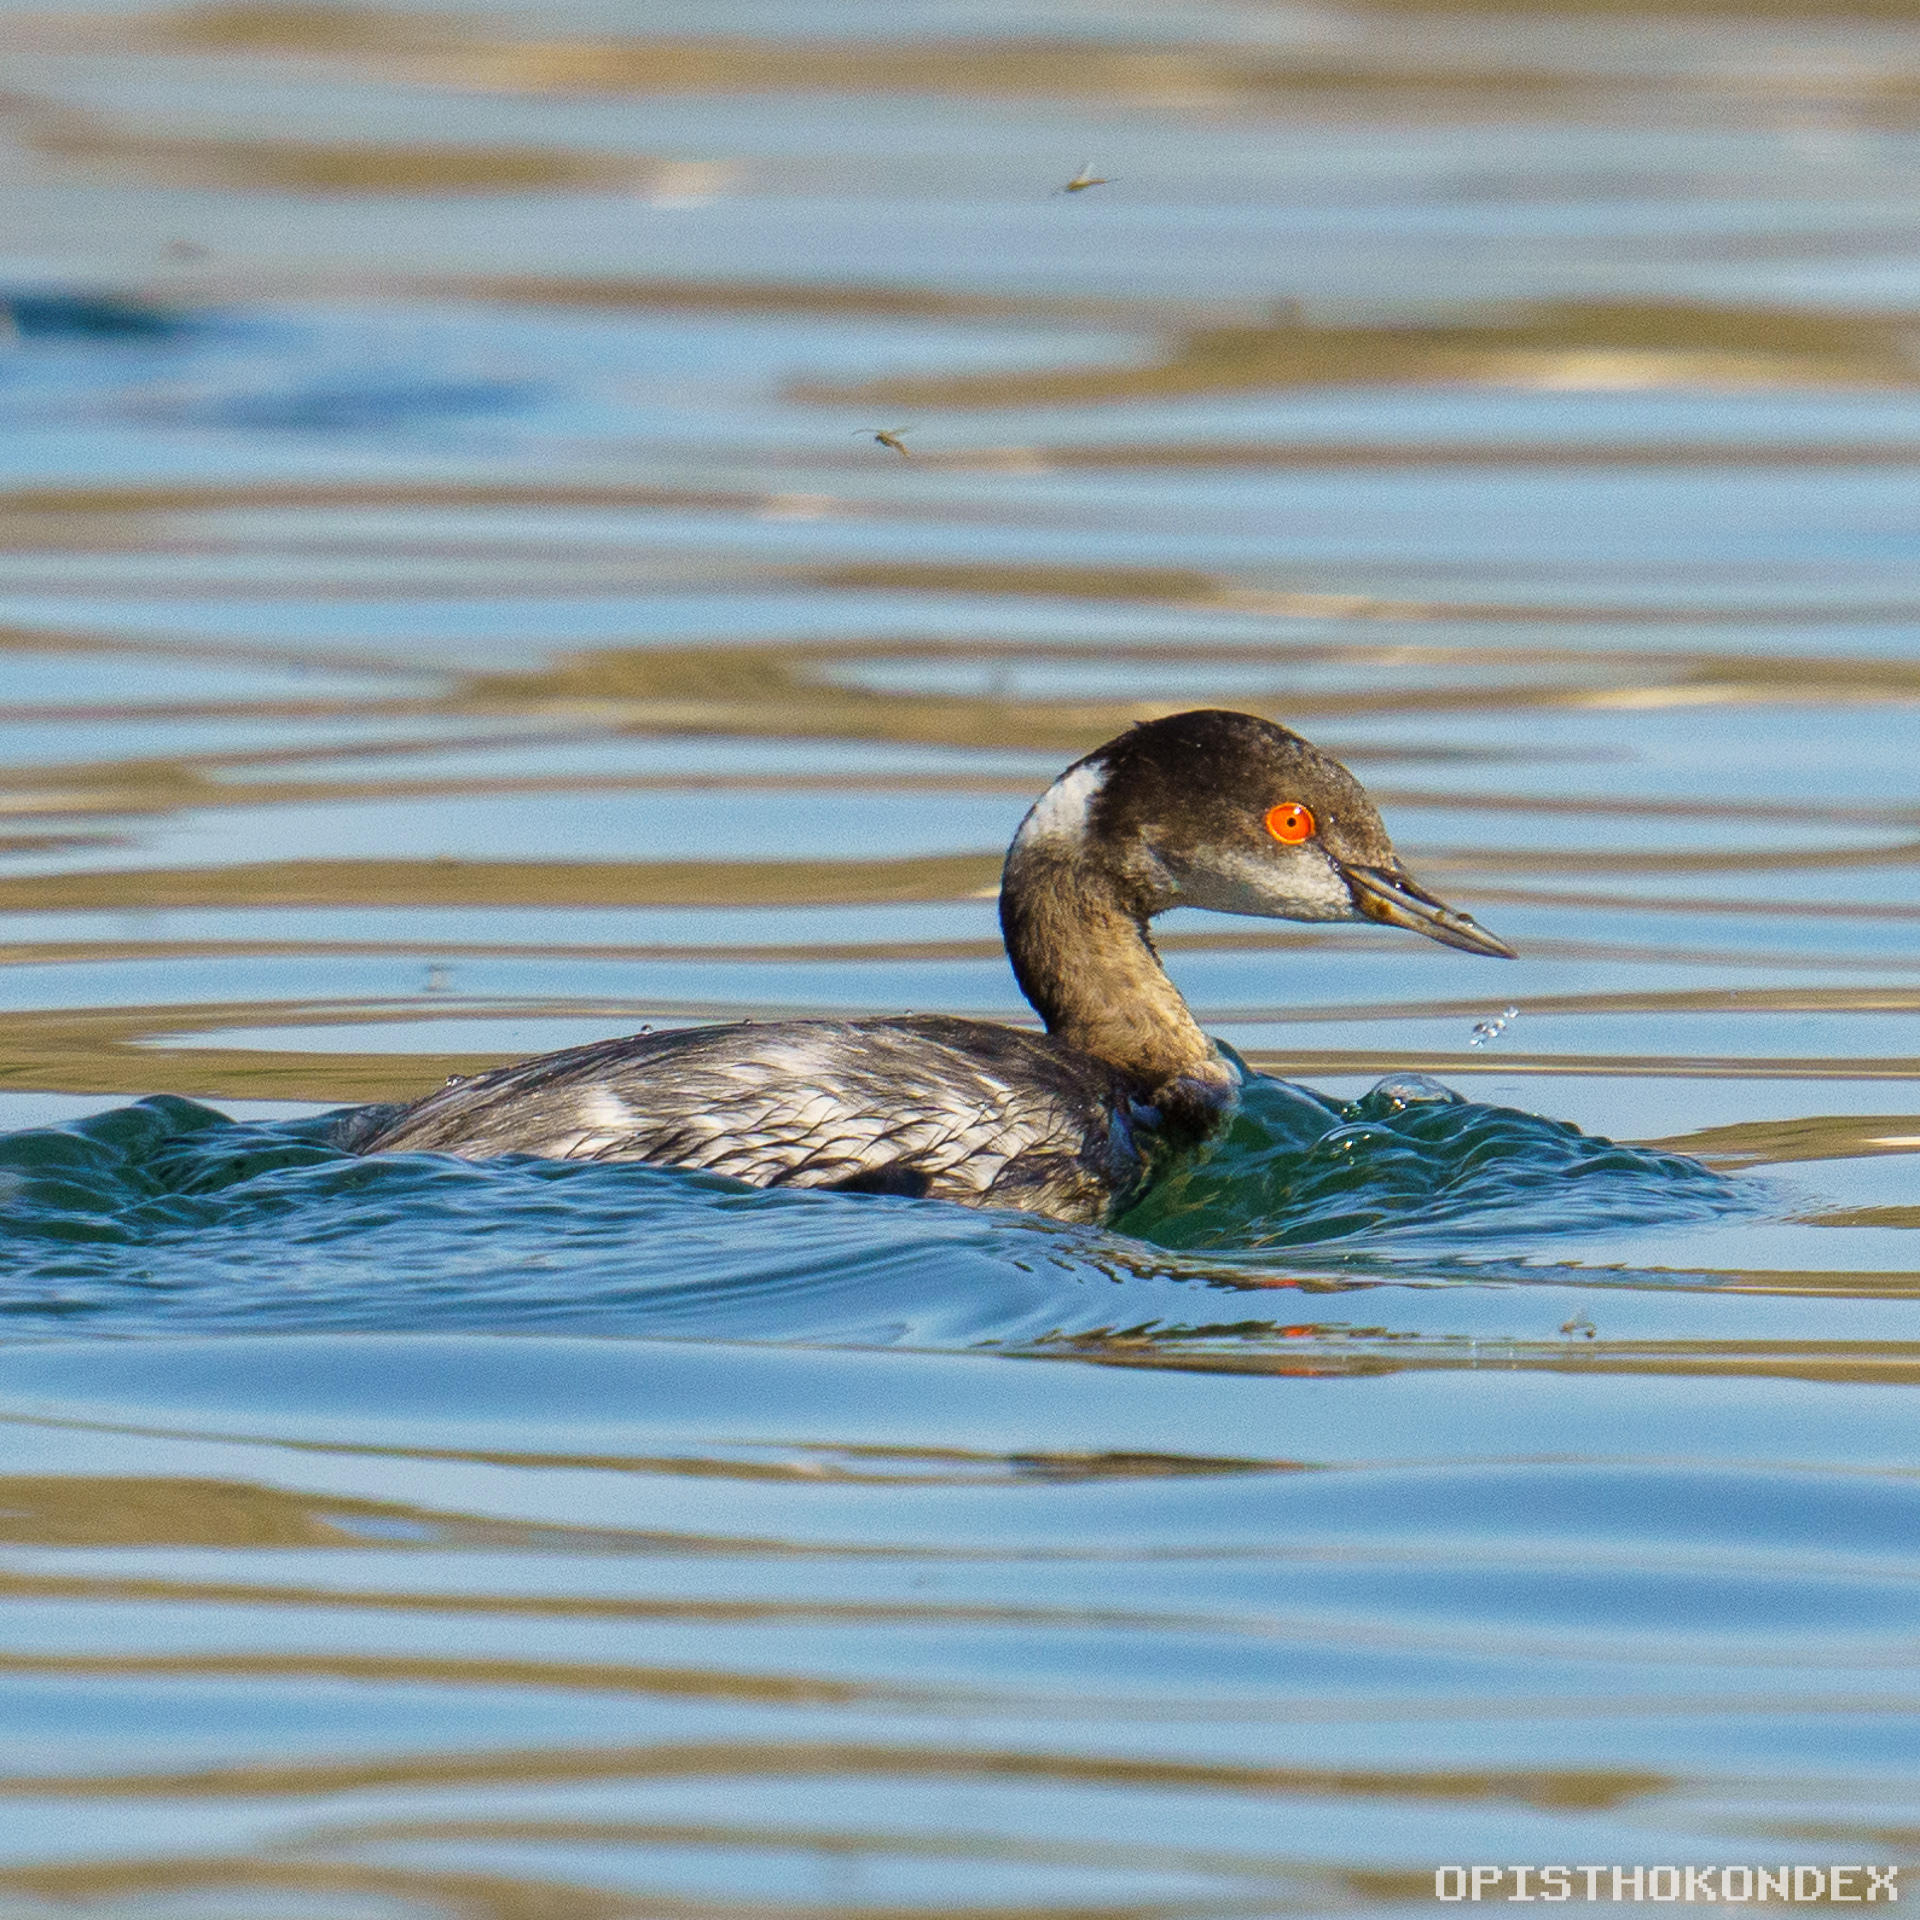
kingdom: Animalia
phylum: Chordata
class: Aves
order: Podicipediformes
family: Podicipedidae
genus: Podiceps
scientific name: Podiceps nigricollis
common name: Black-necked grebe
